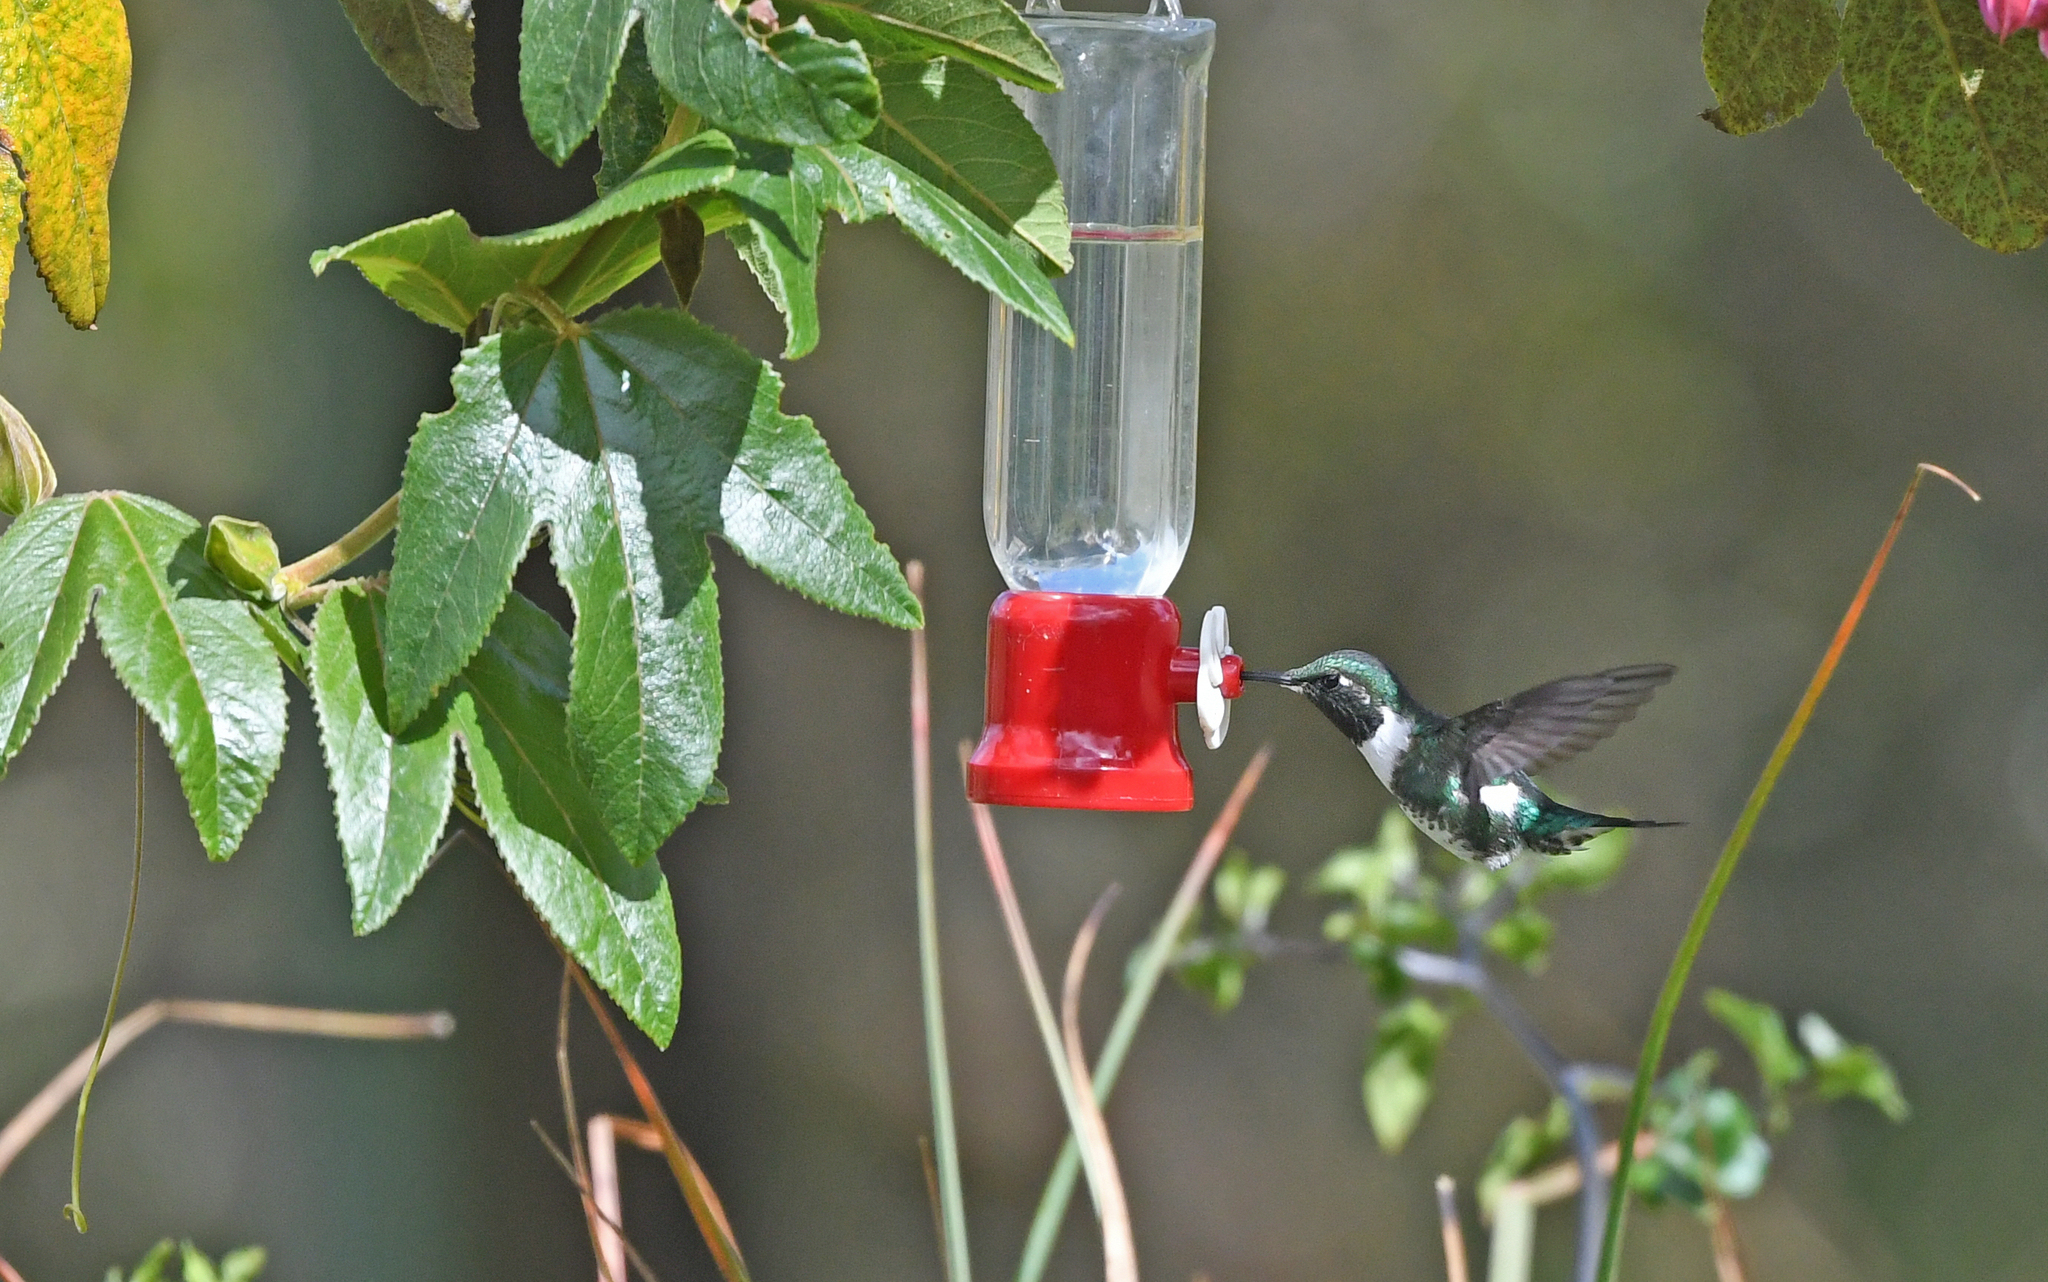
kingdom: Animalia
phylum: Chordata
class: Aves
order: Apodiformes
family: Trochilidae
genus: Chaetocercus
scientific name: Chaetocercus mulsant
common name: White-bellied woodstar
